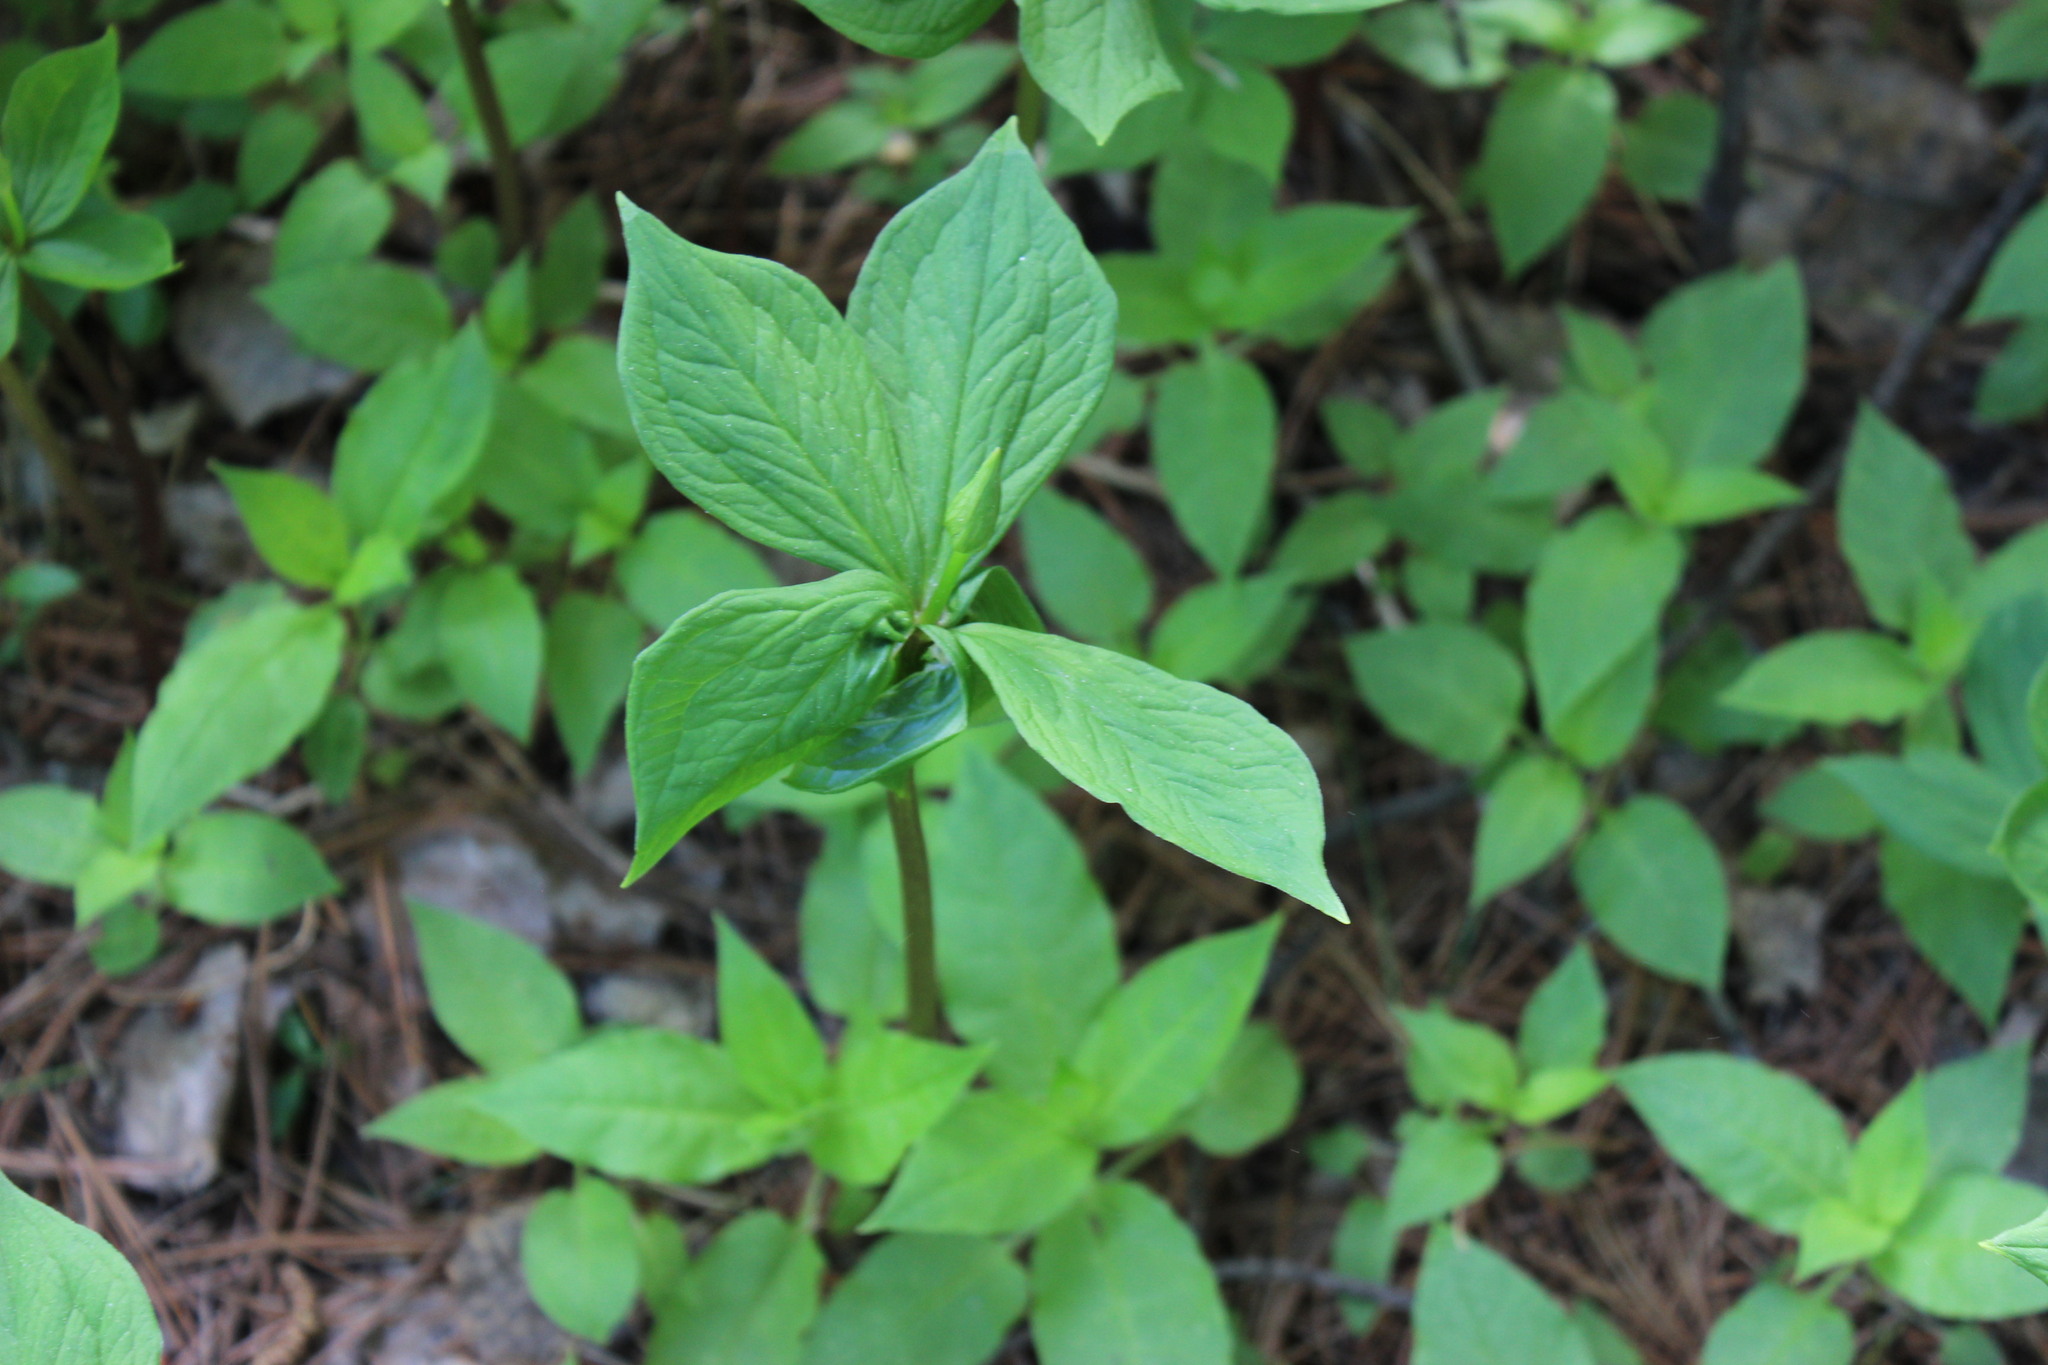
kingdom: Plantae
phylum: Tracheophyta
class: Liliopsida
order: Liliales
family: Melanthiaceae
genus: Paris
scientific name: Paris quadrifolia
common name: Herb-paris
